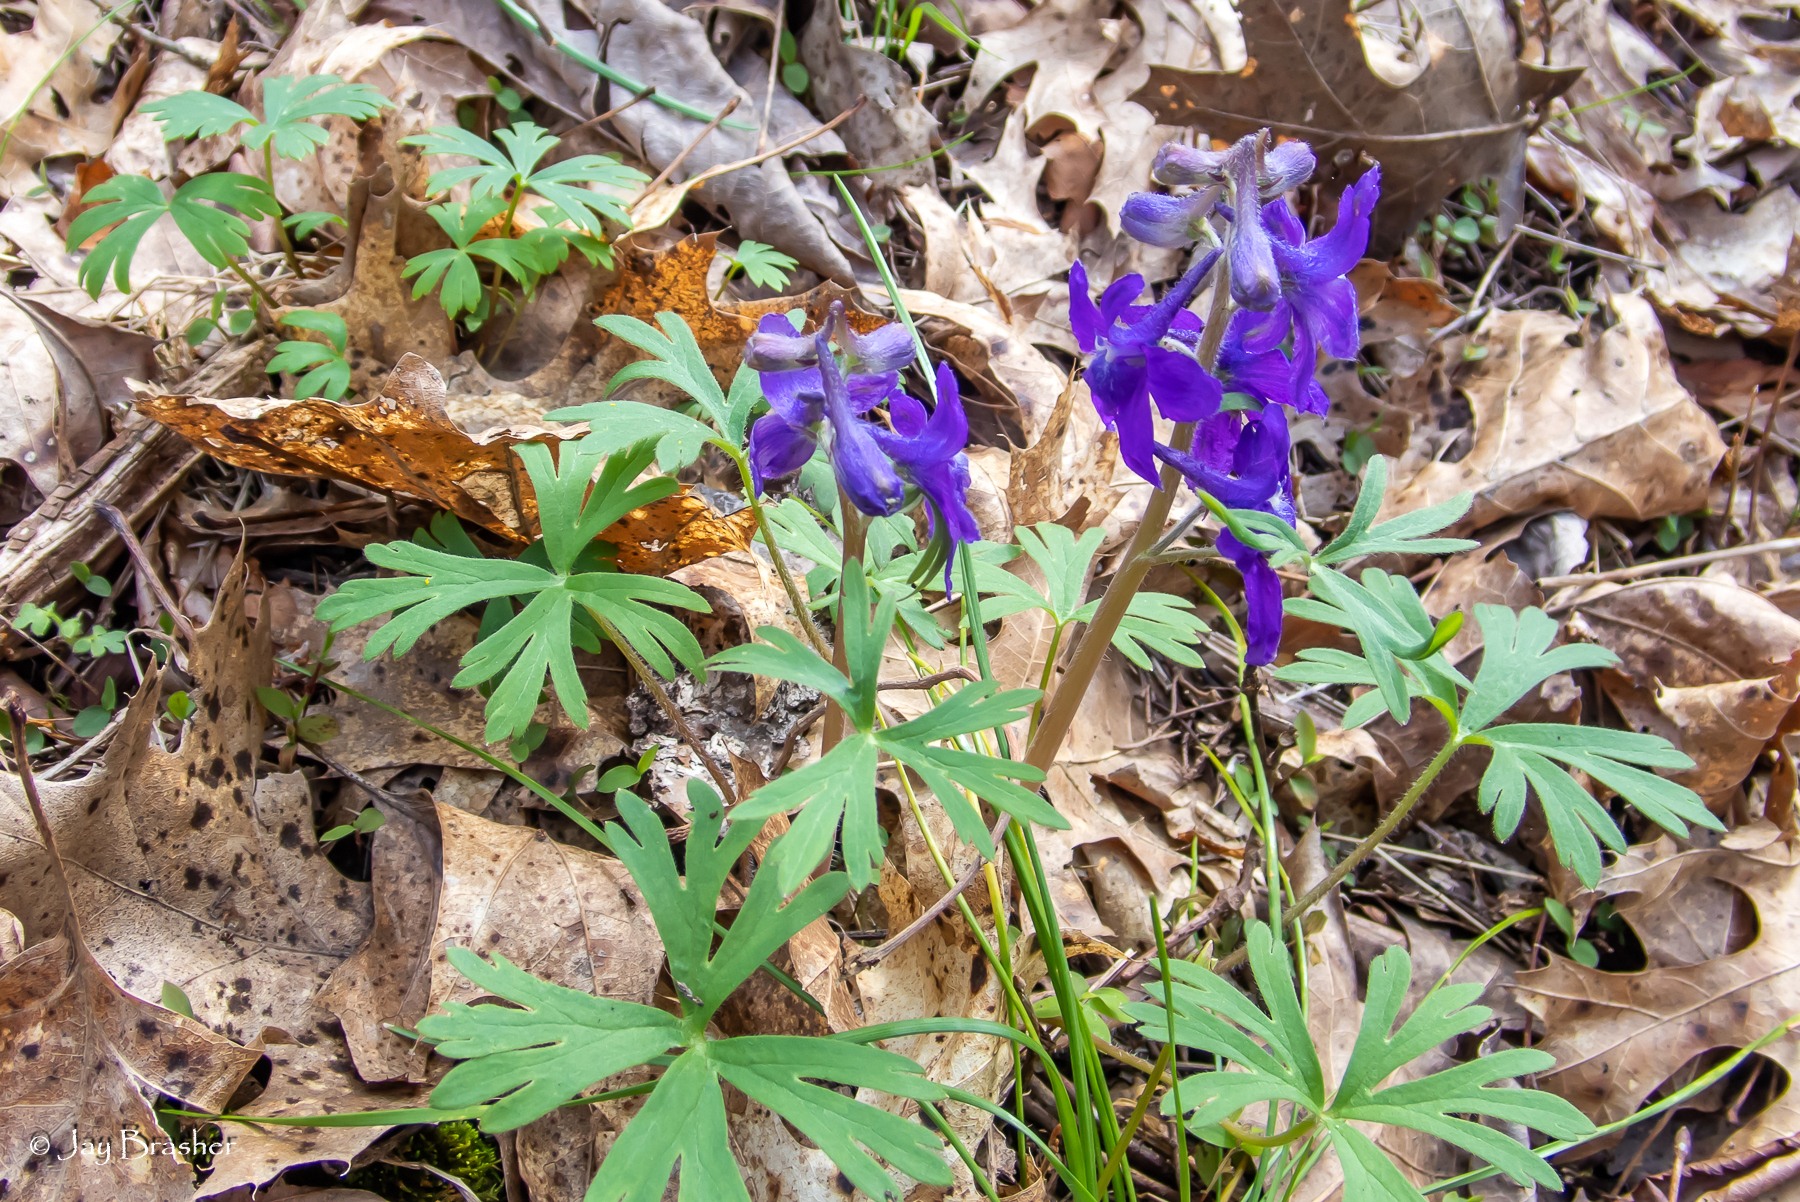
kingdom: Plantae
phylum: Tracheophyta
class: Magnoliopsida
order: Ranunculales
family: Ranunculaceae
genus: Delphinium
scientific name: Delphinium tricorne
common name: Dwarf larkspur
